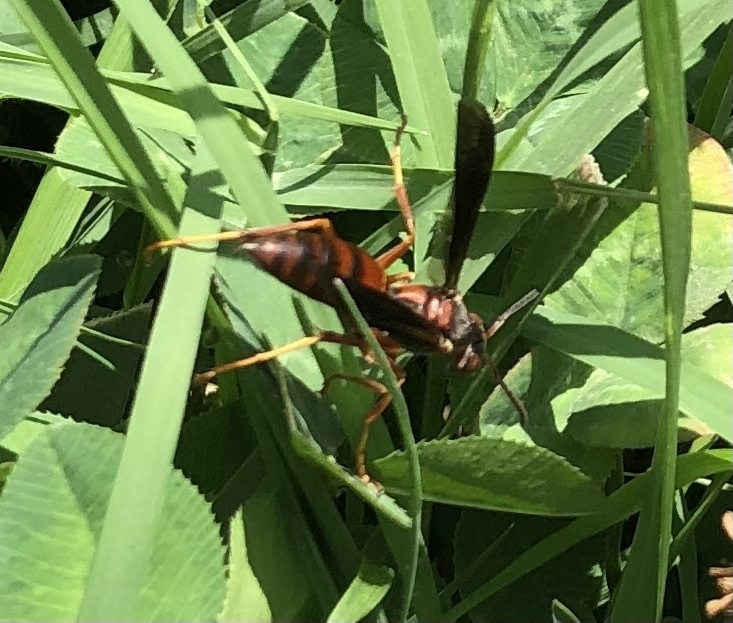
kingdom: Animalia
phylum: Arthropoda
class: Insecta
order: Hymenoptera
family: Vespidae
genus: Fuscopolistes
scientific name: Fuscopolistes
